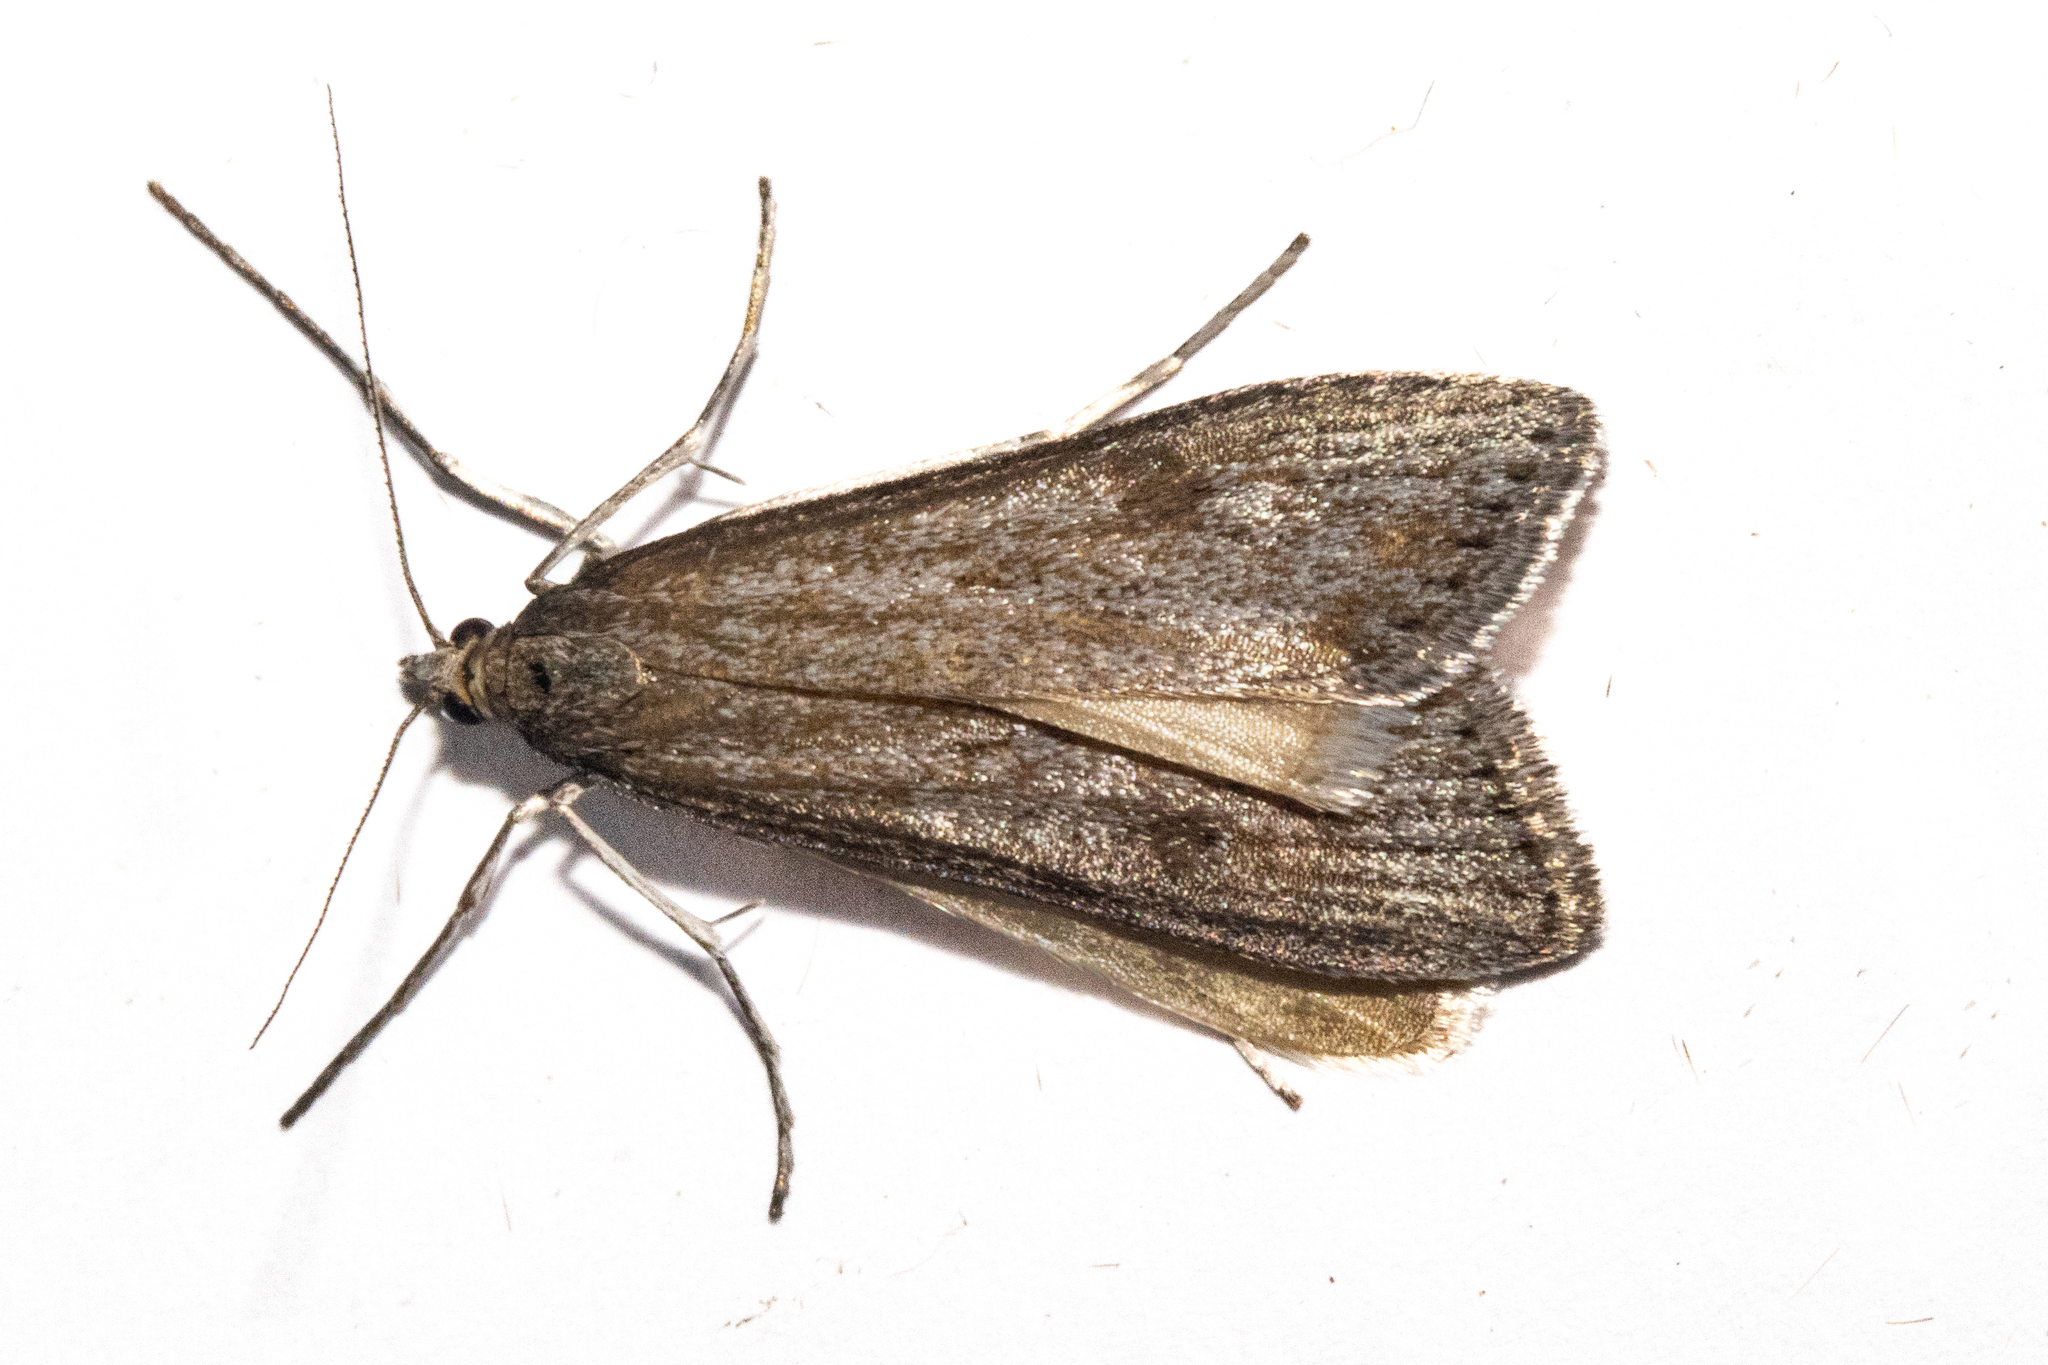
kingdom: Animalia
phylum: Arthropoda
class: Insecta
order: Lepidoptera
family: Crambidae
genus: Achyra
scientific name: Achyra affinitalis
